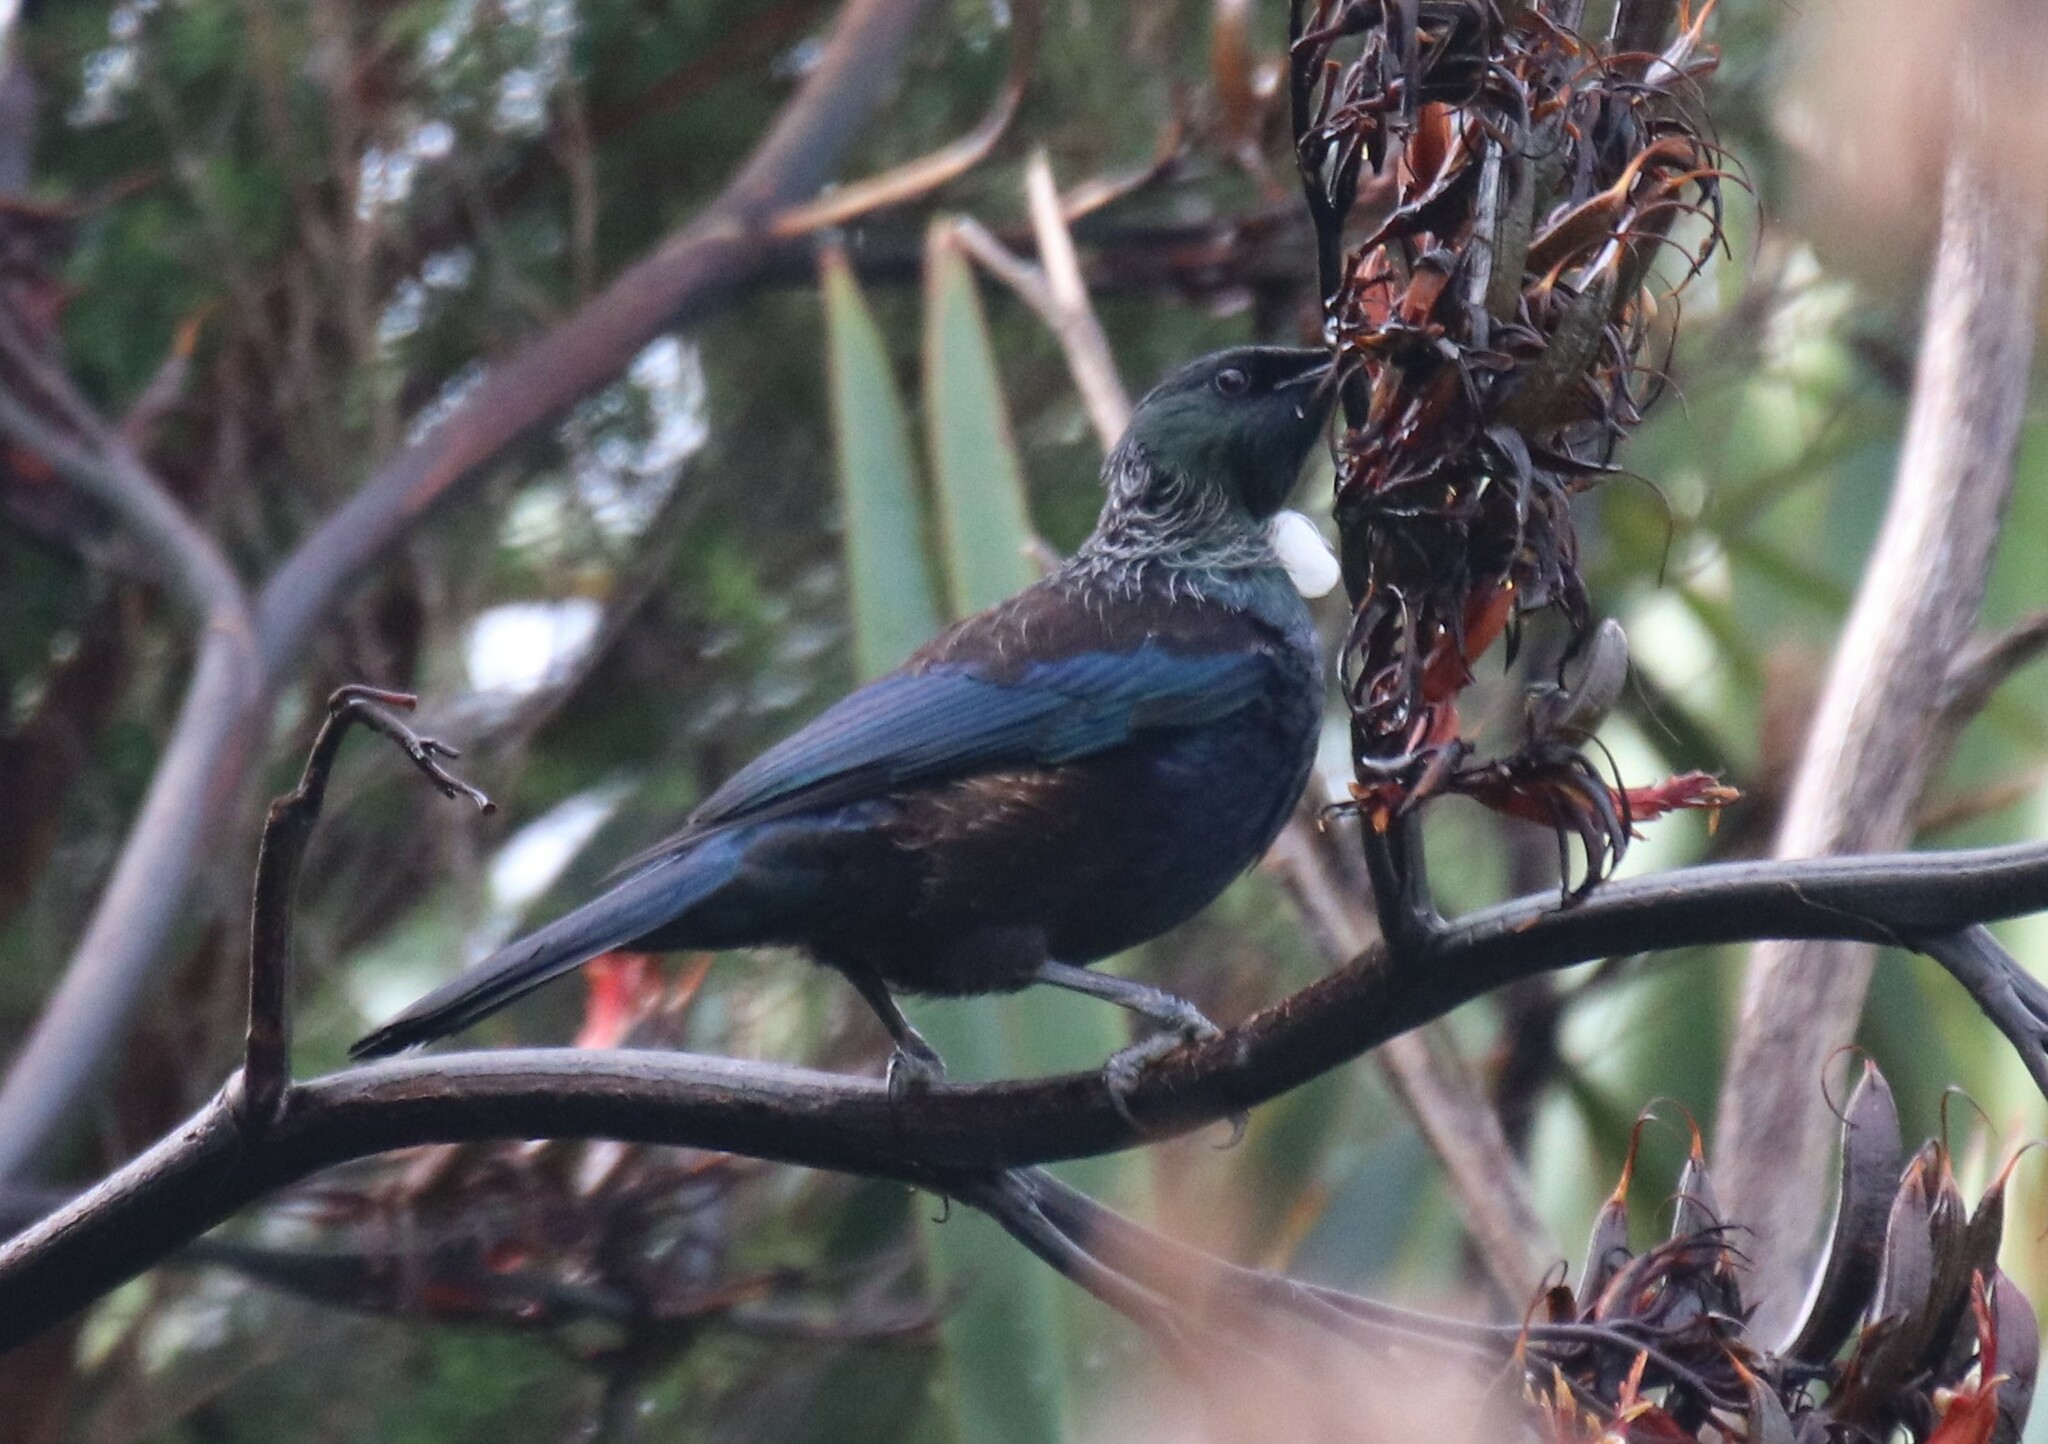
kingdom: Animalia
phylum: Chordata
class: Aves
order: Passeriformes
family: Meliphagidae
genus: Prosthemadera
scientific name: Prosthemadera novaeseelandiae
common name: Tui
